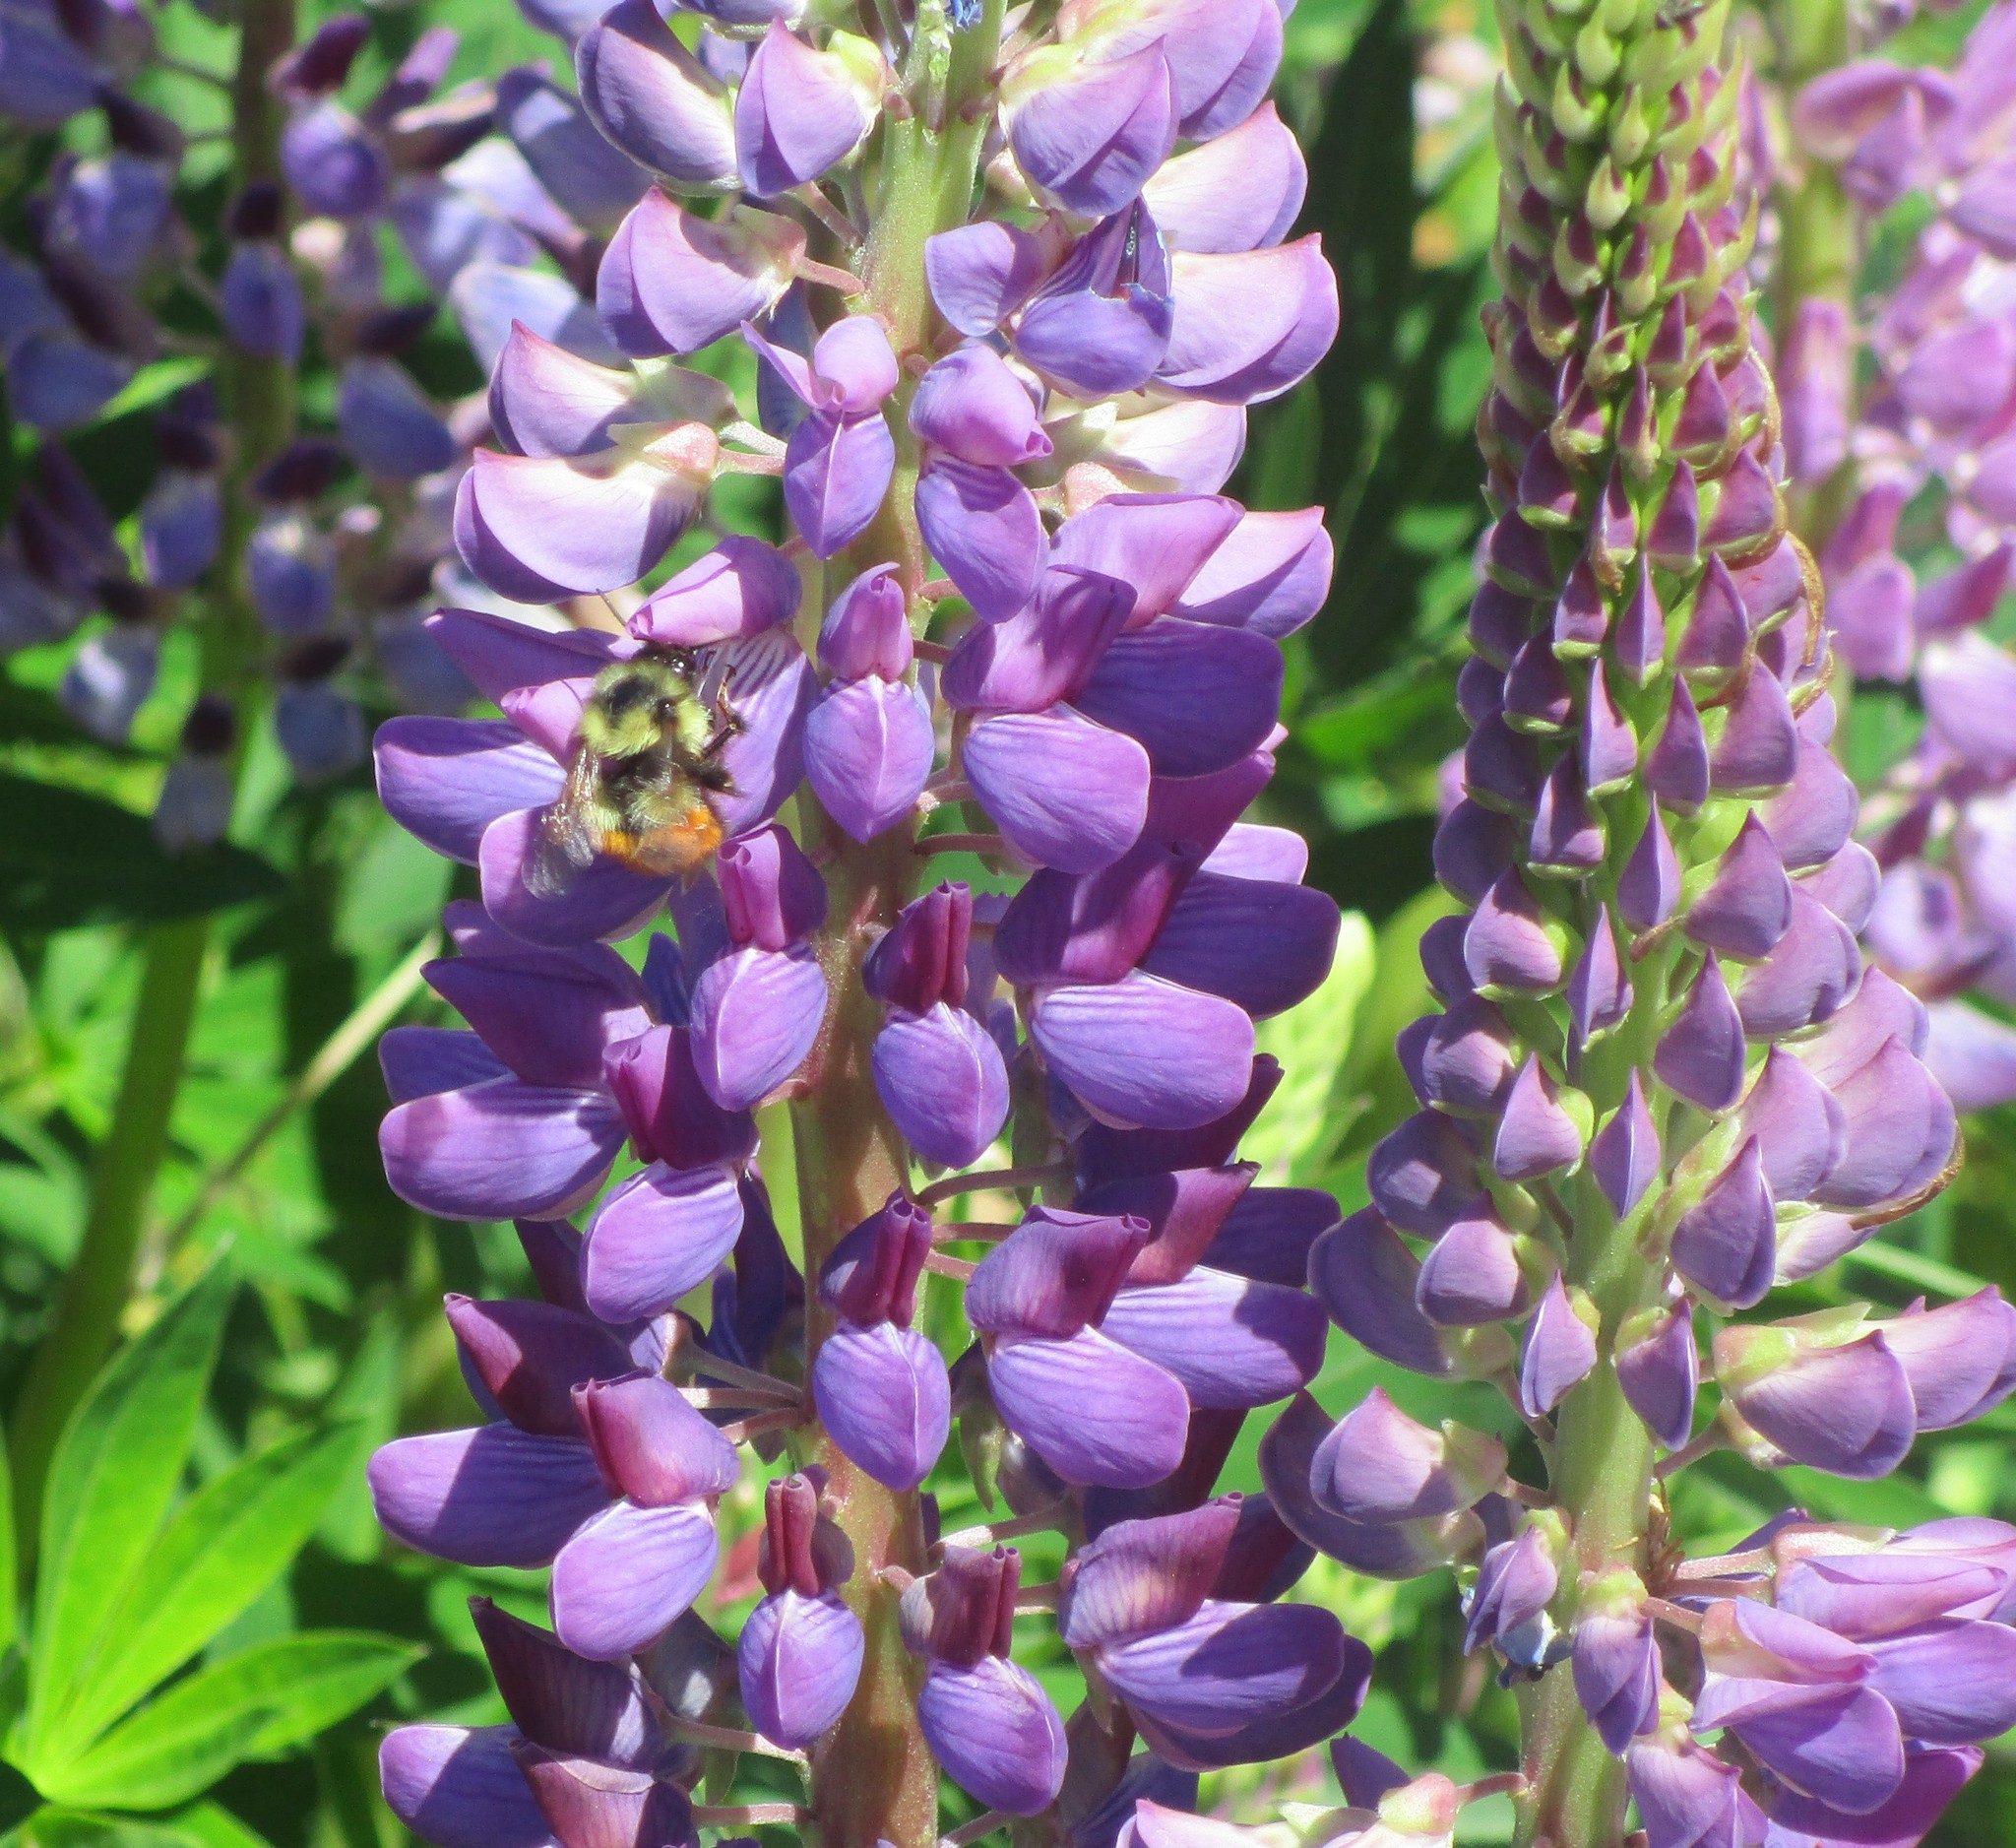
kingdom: Animalia
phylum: Arthropoda
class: Insecta
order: Hymenoptera
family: Apidae
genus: Bombus
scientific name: Bombus melanopygus
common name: Black tail bumble bee
